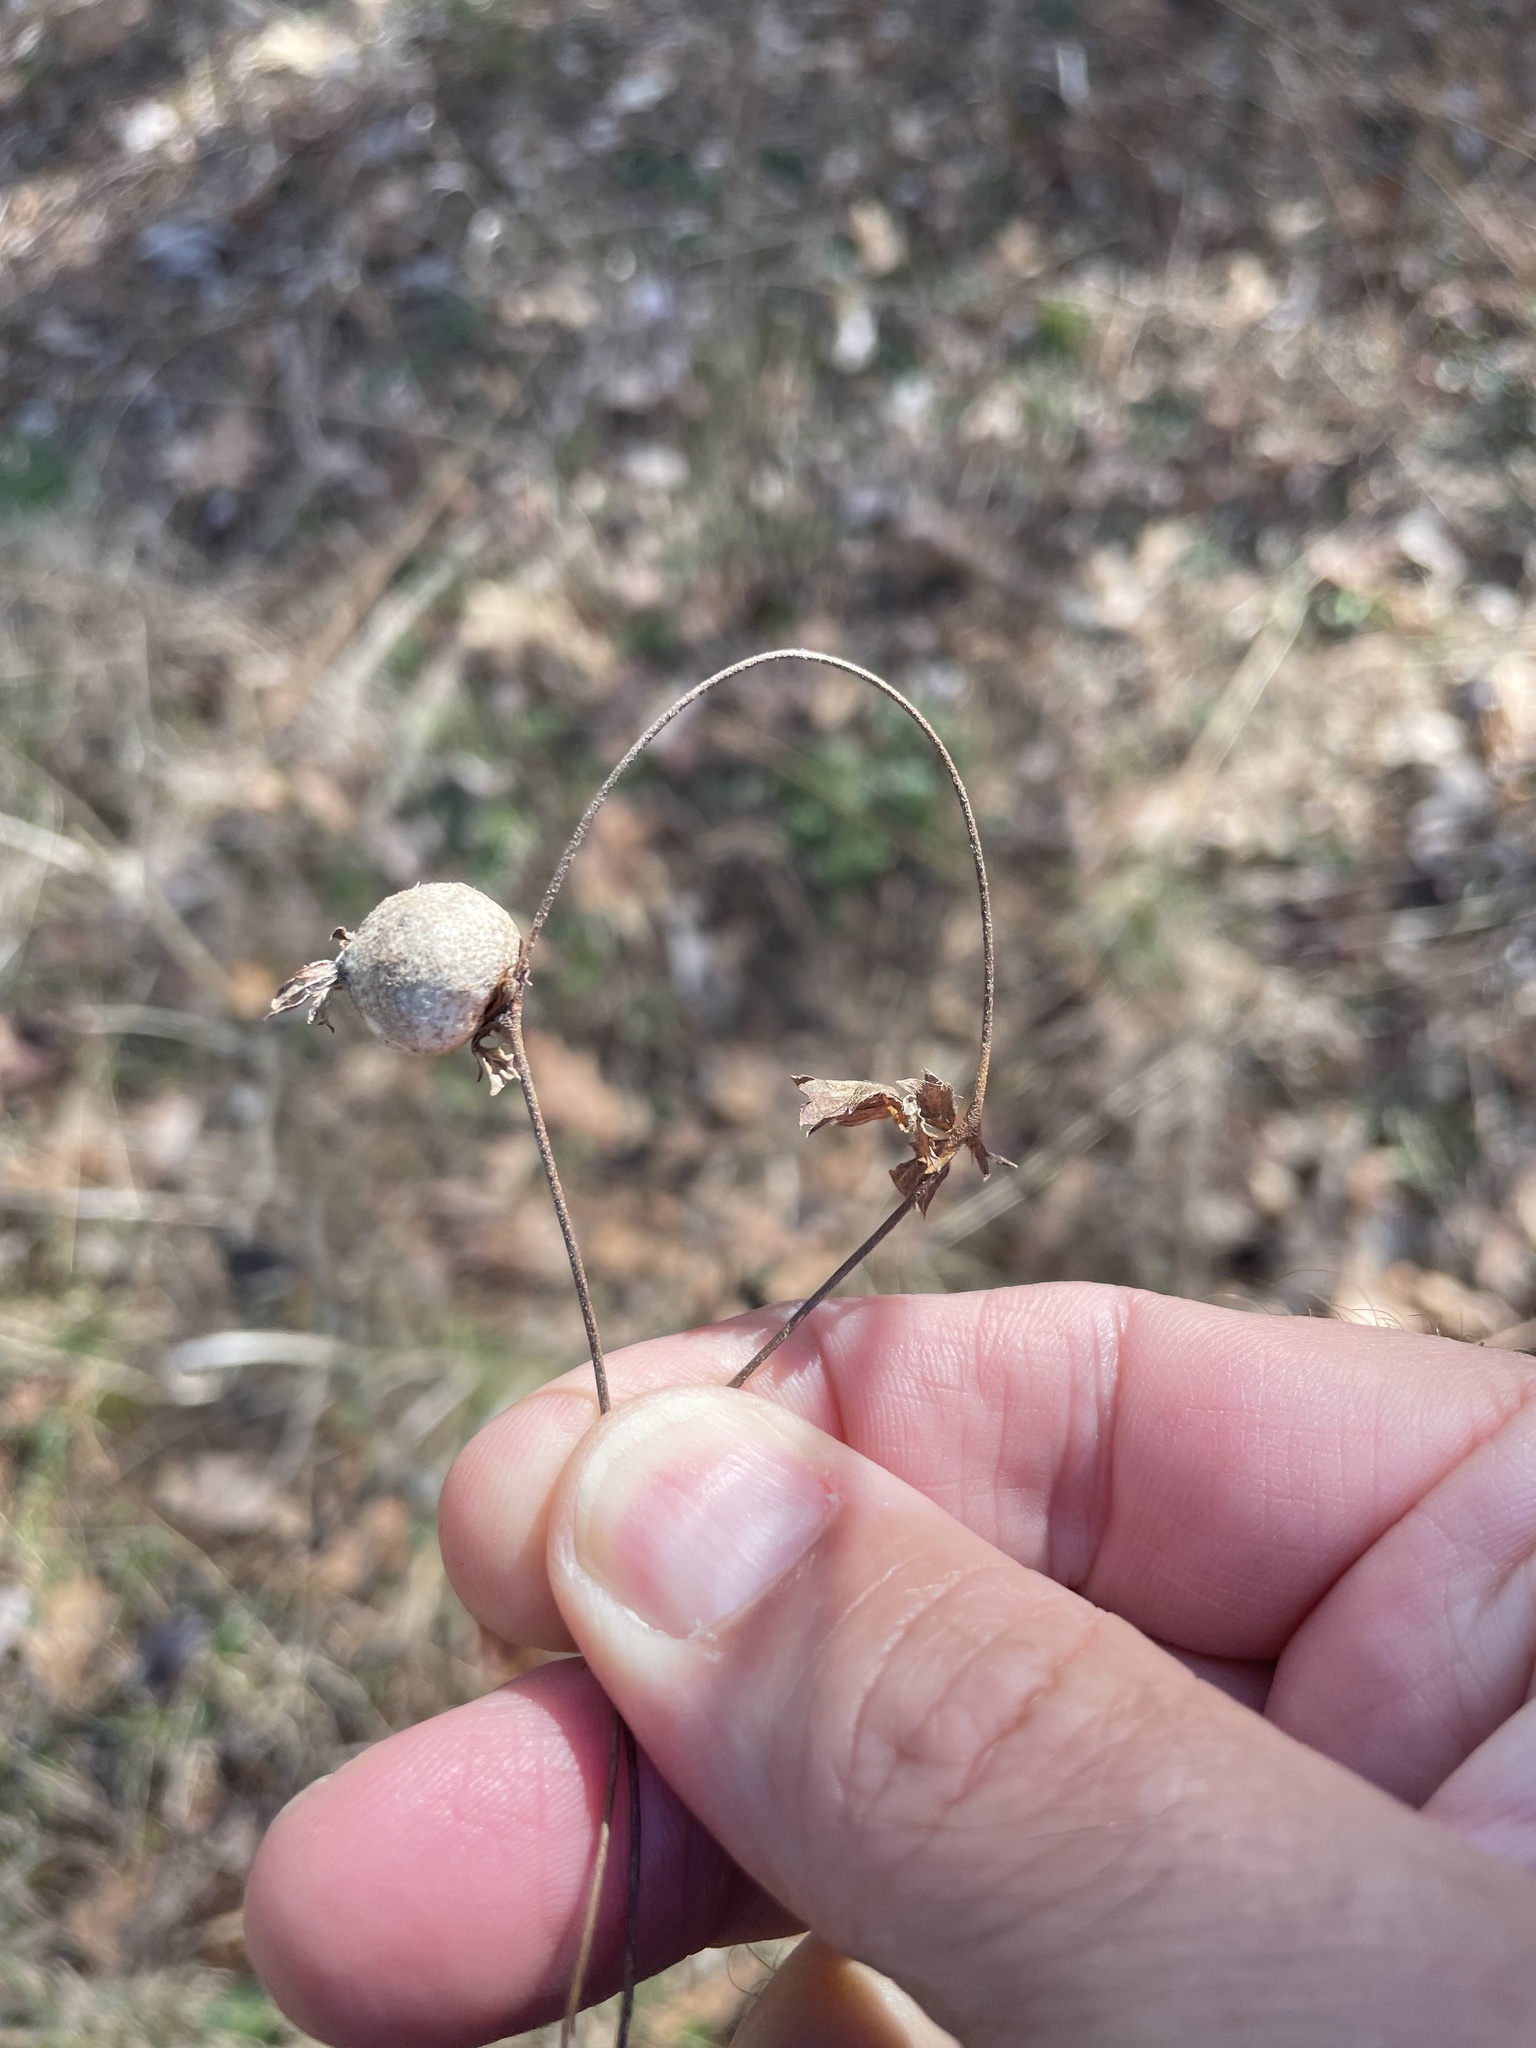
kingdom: Animalia
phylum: Arthropoda
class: Insecta
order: Hymenoptera
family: Cynipidae
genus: Diastrophus
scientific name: Diastrophus potentillae
